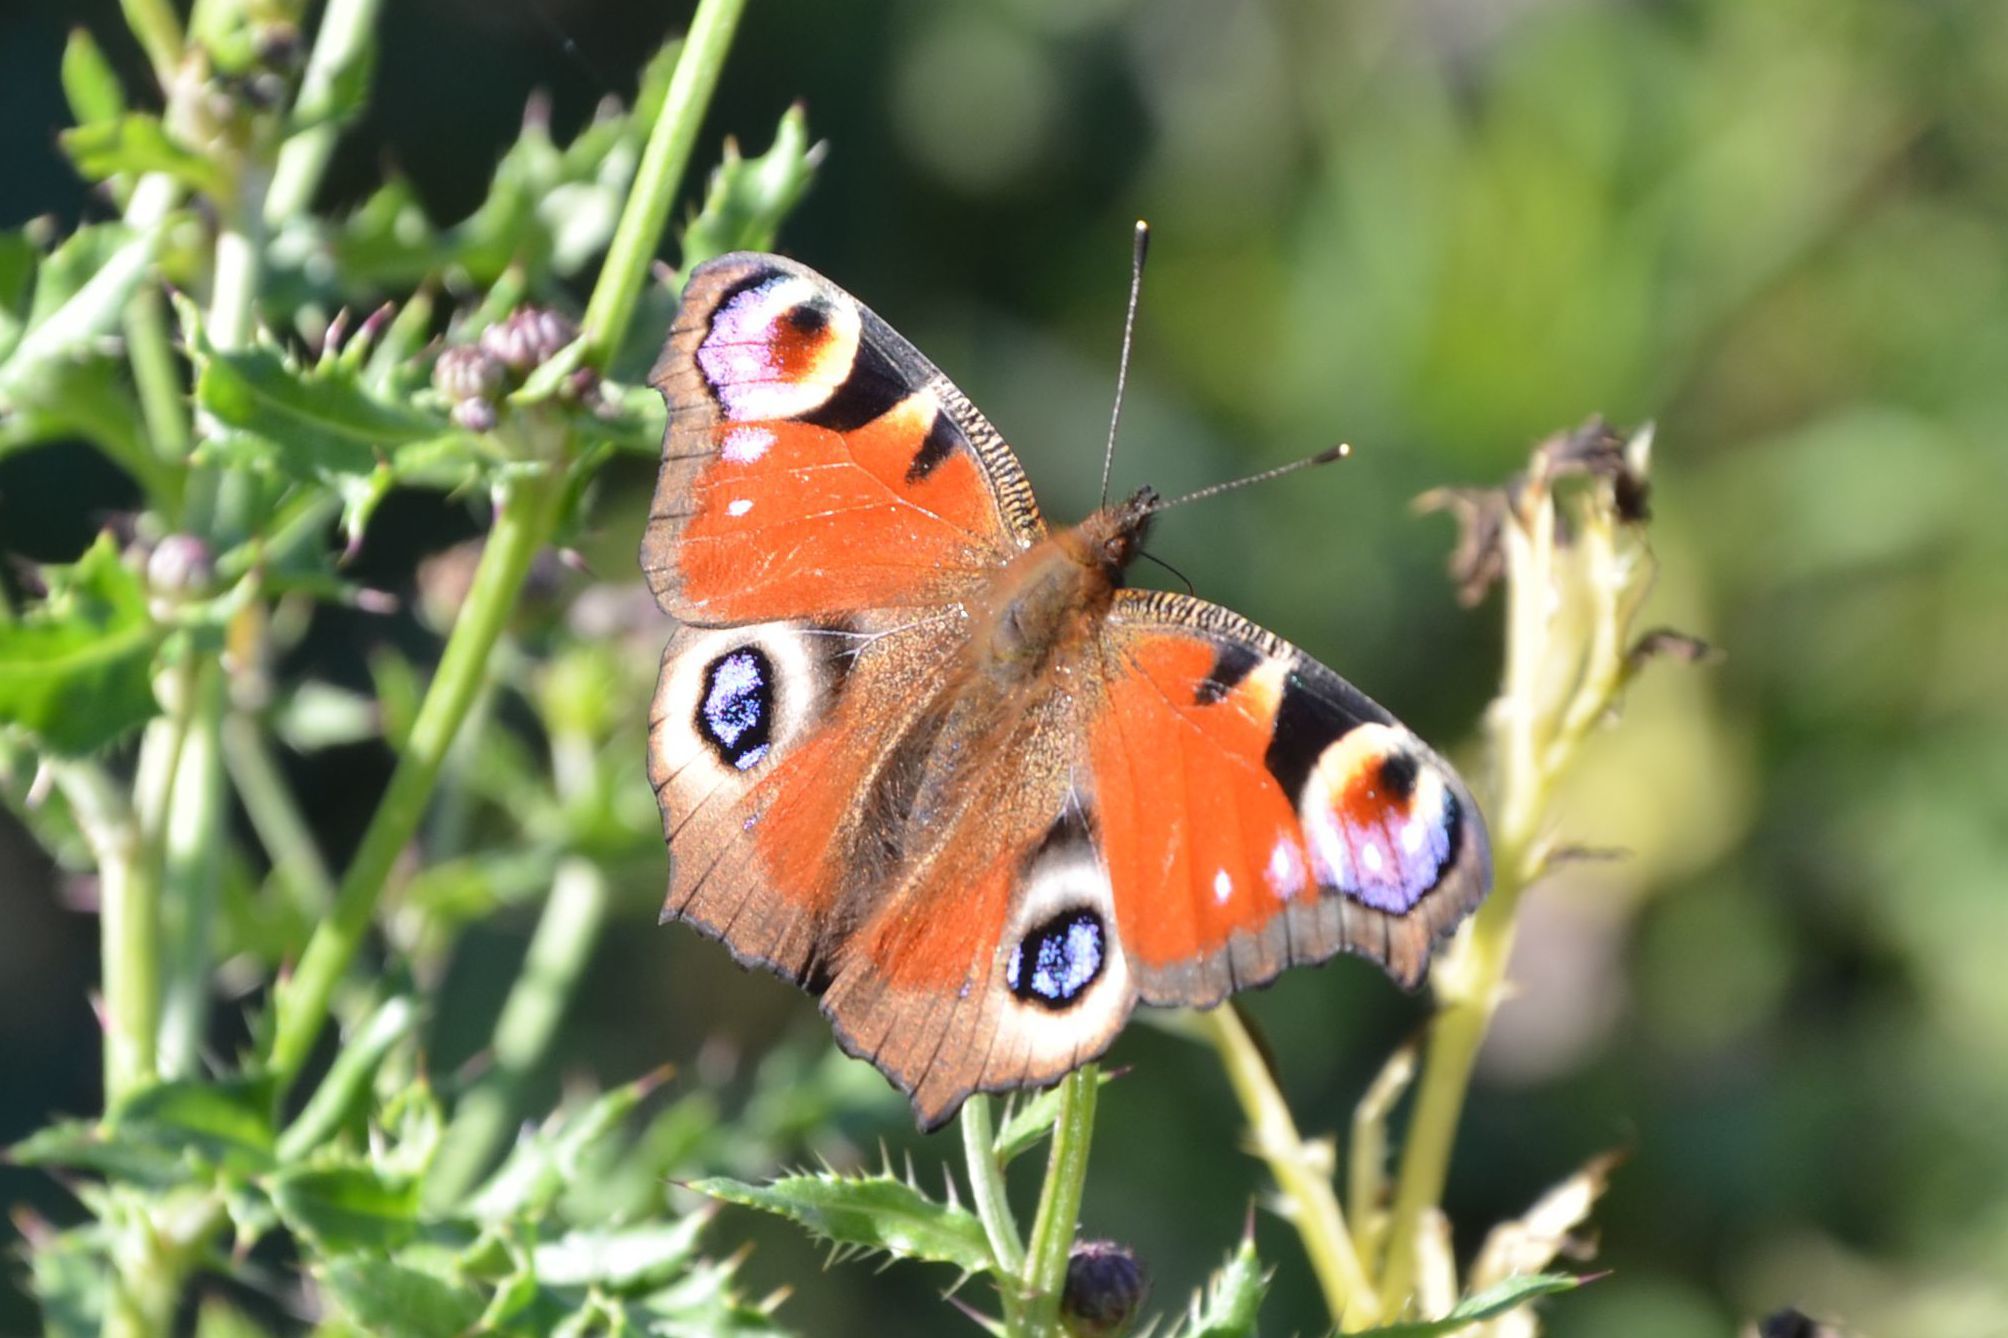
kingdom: Animalia
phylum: Arthropoda
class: Insecta
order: Lepidoptera
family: Nymphalidae
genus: Aglais
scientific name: Aglais io
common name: Peacock
